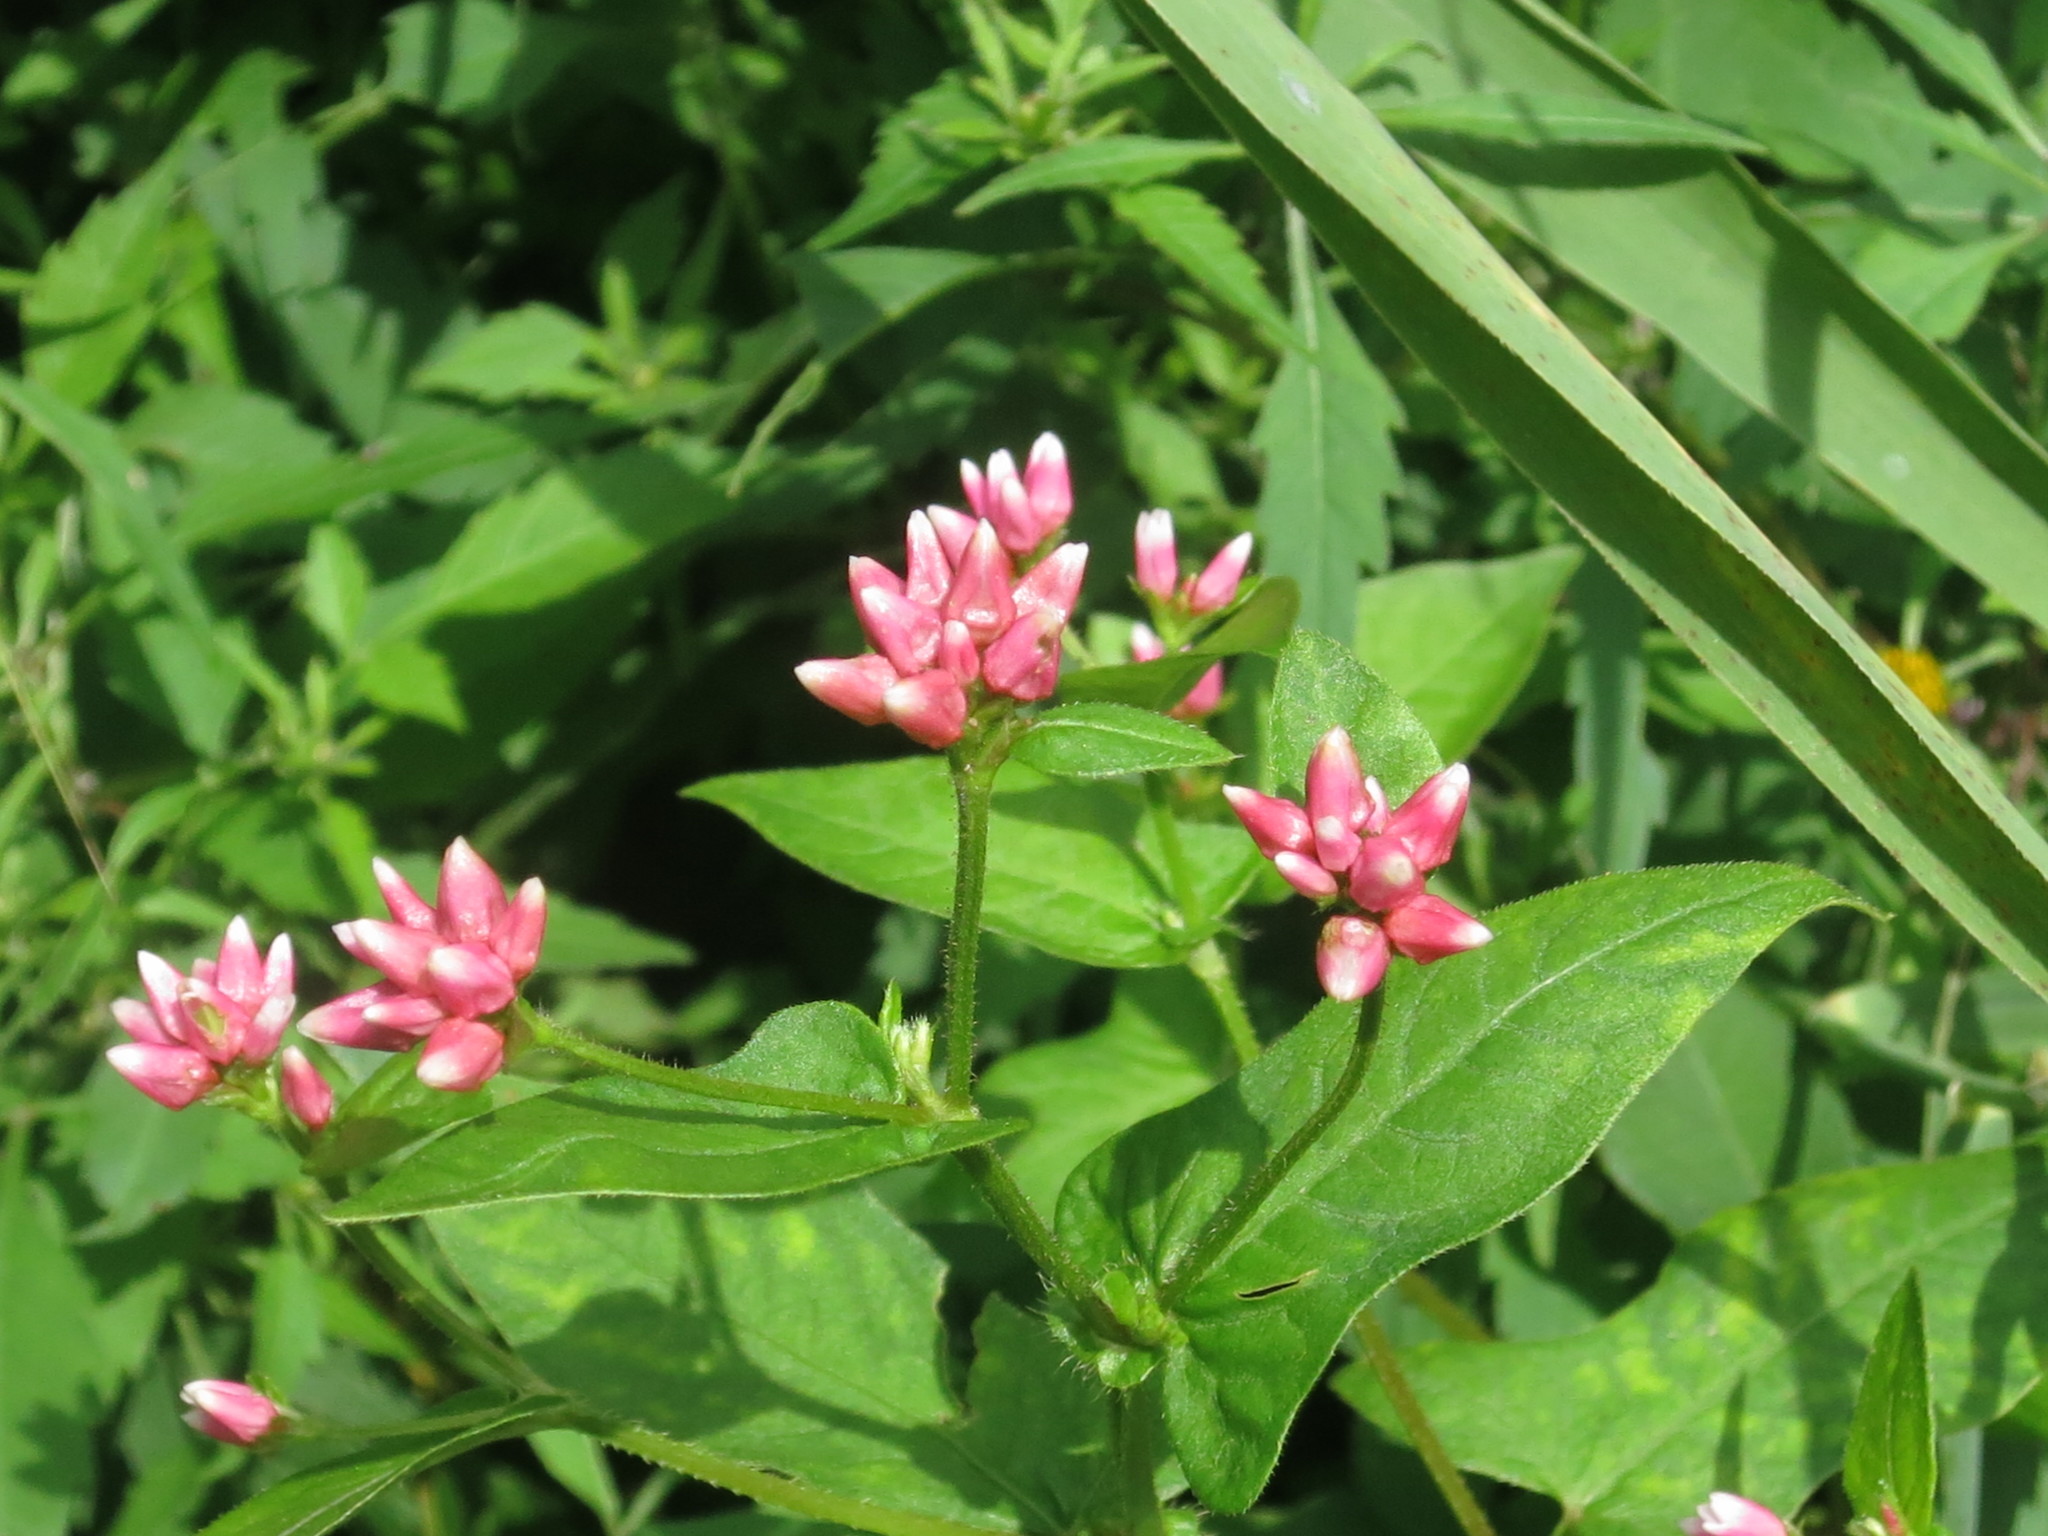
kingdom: Plantae
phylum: Tracheophyta
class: Magnoliopsida
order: Caryophyllales
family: Polygonaceae
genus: Persicaria
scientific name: Persicaria thunbergii
